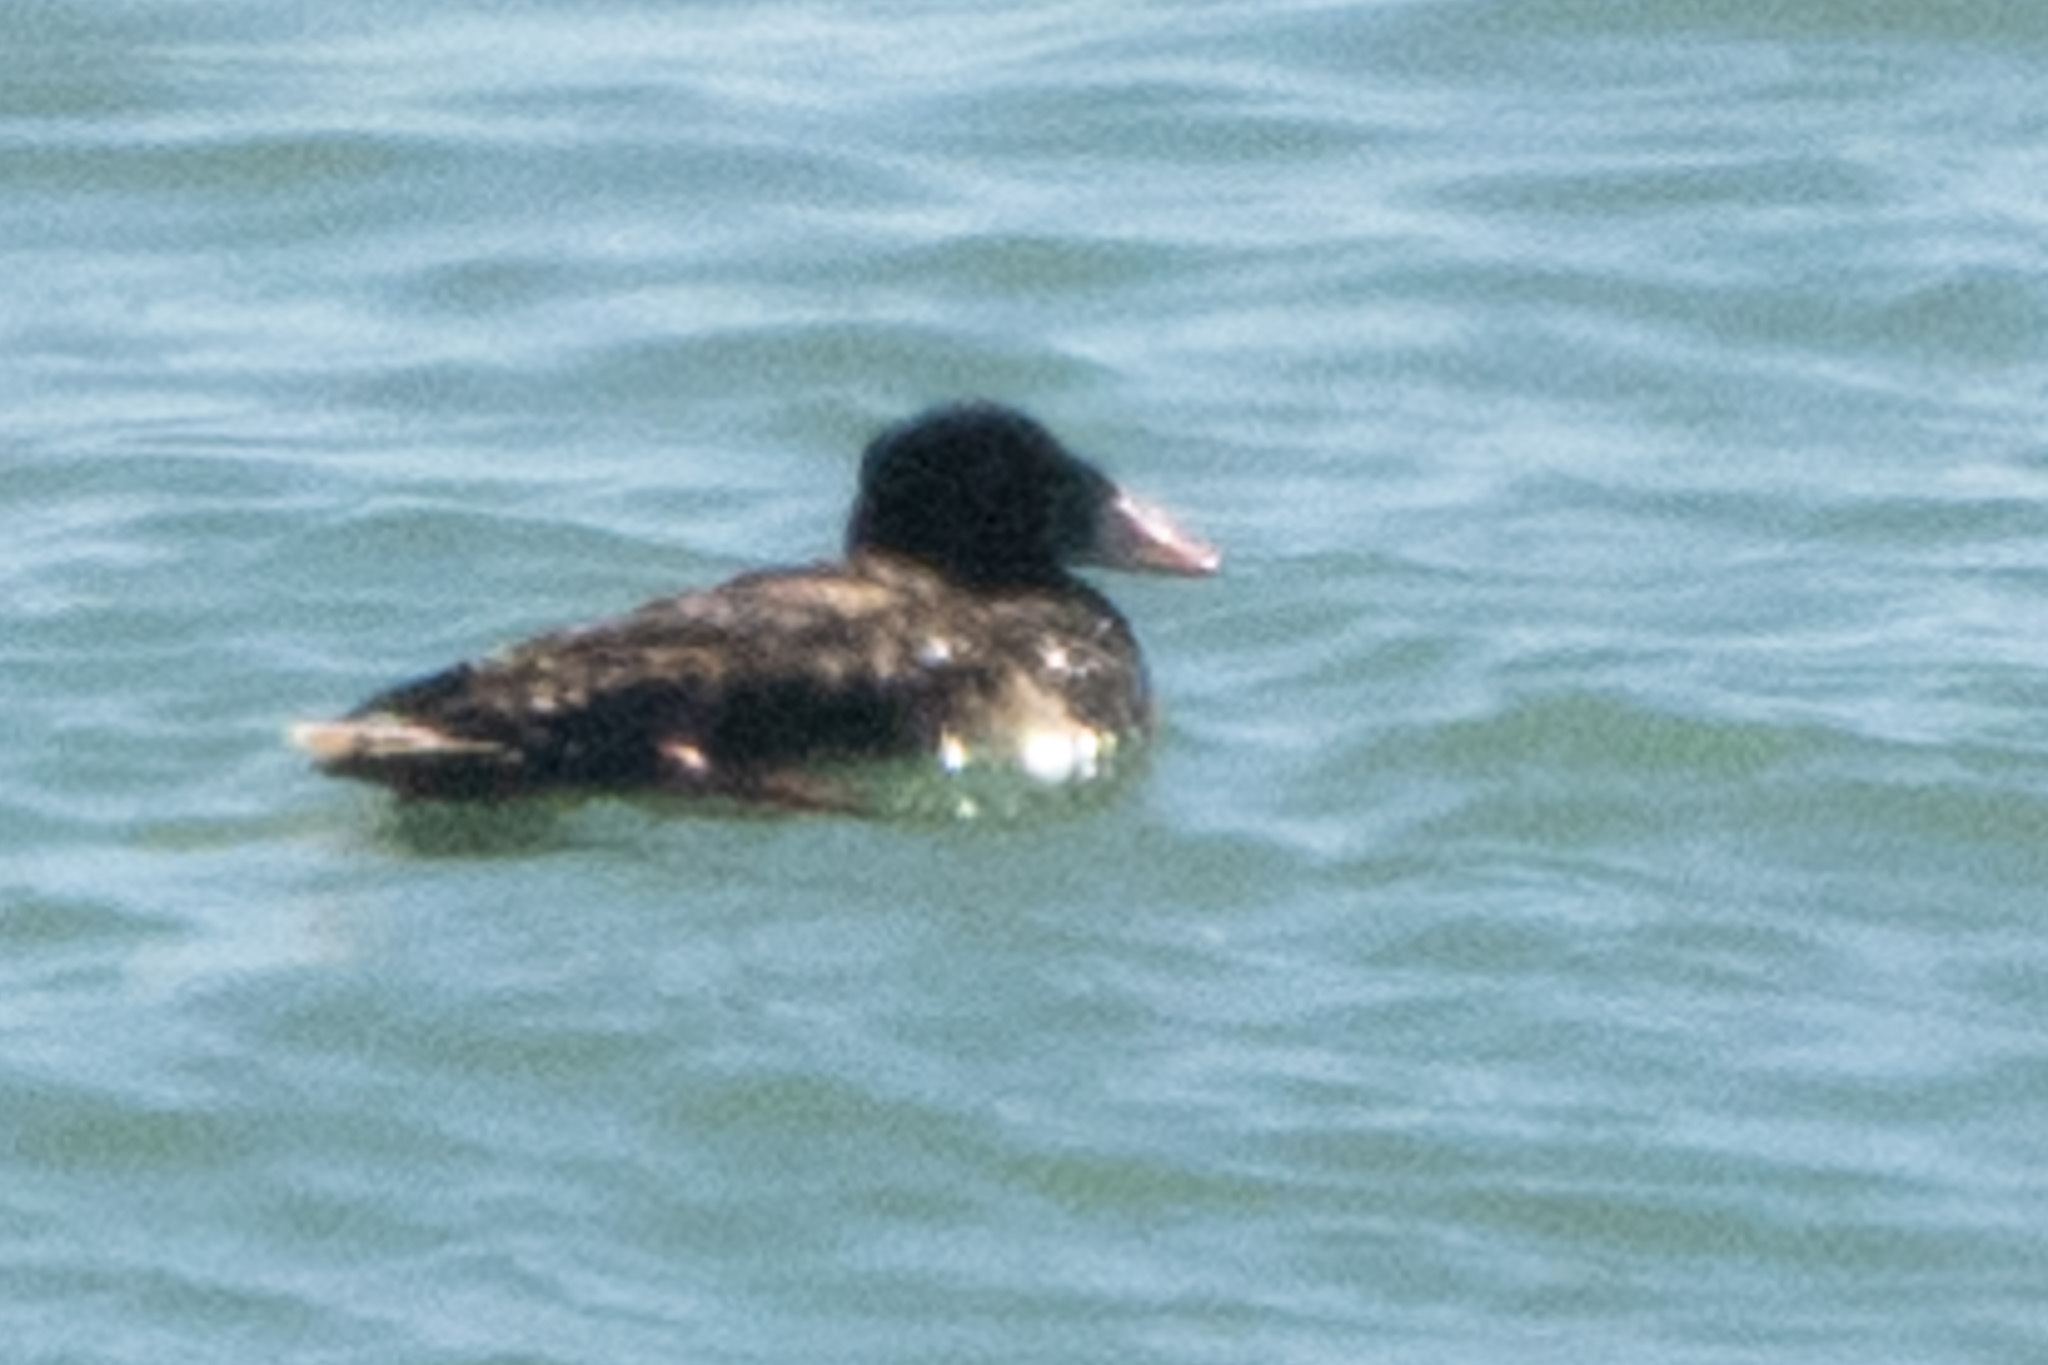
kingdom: Animalia
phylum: Chordata
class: Aves
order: Anseriformes
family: Anatidae
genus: Melanitta
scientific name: Melanitta perspicillata
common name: Surf scoter
